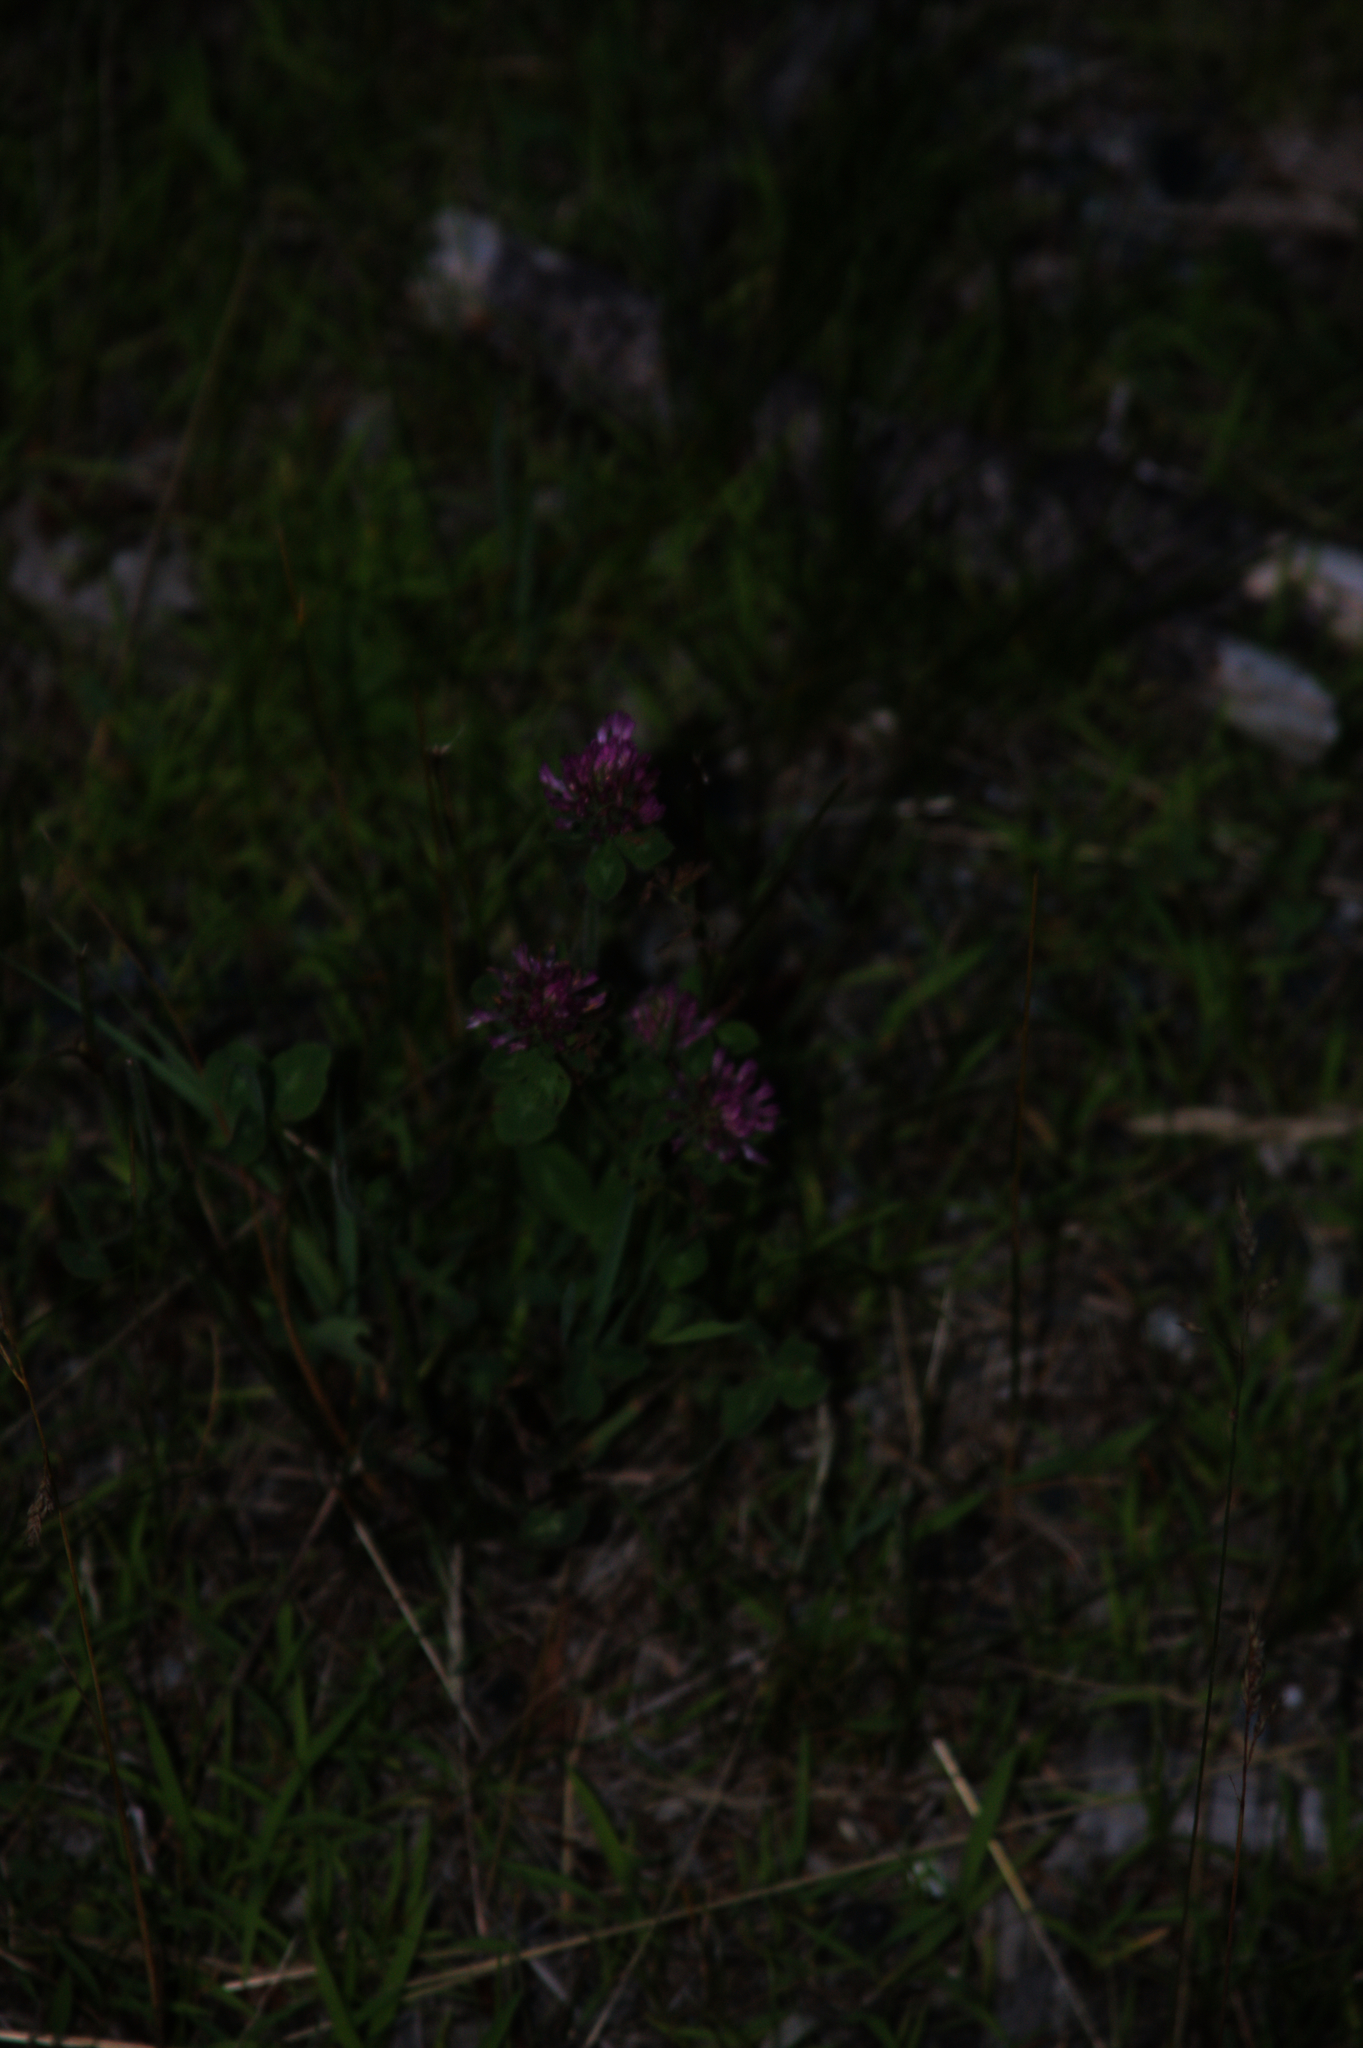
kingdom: Plantae
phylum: Tracheophyta
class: Magnoliopsida
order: Fabales
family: Fabaceae
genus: Trifolium
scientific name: Trifolium pratense
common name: Red clover
